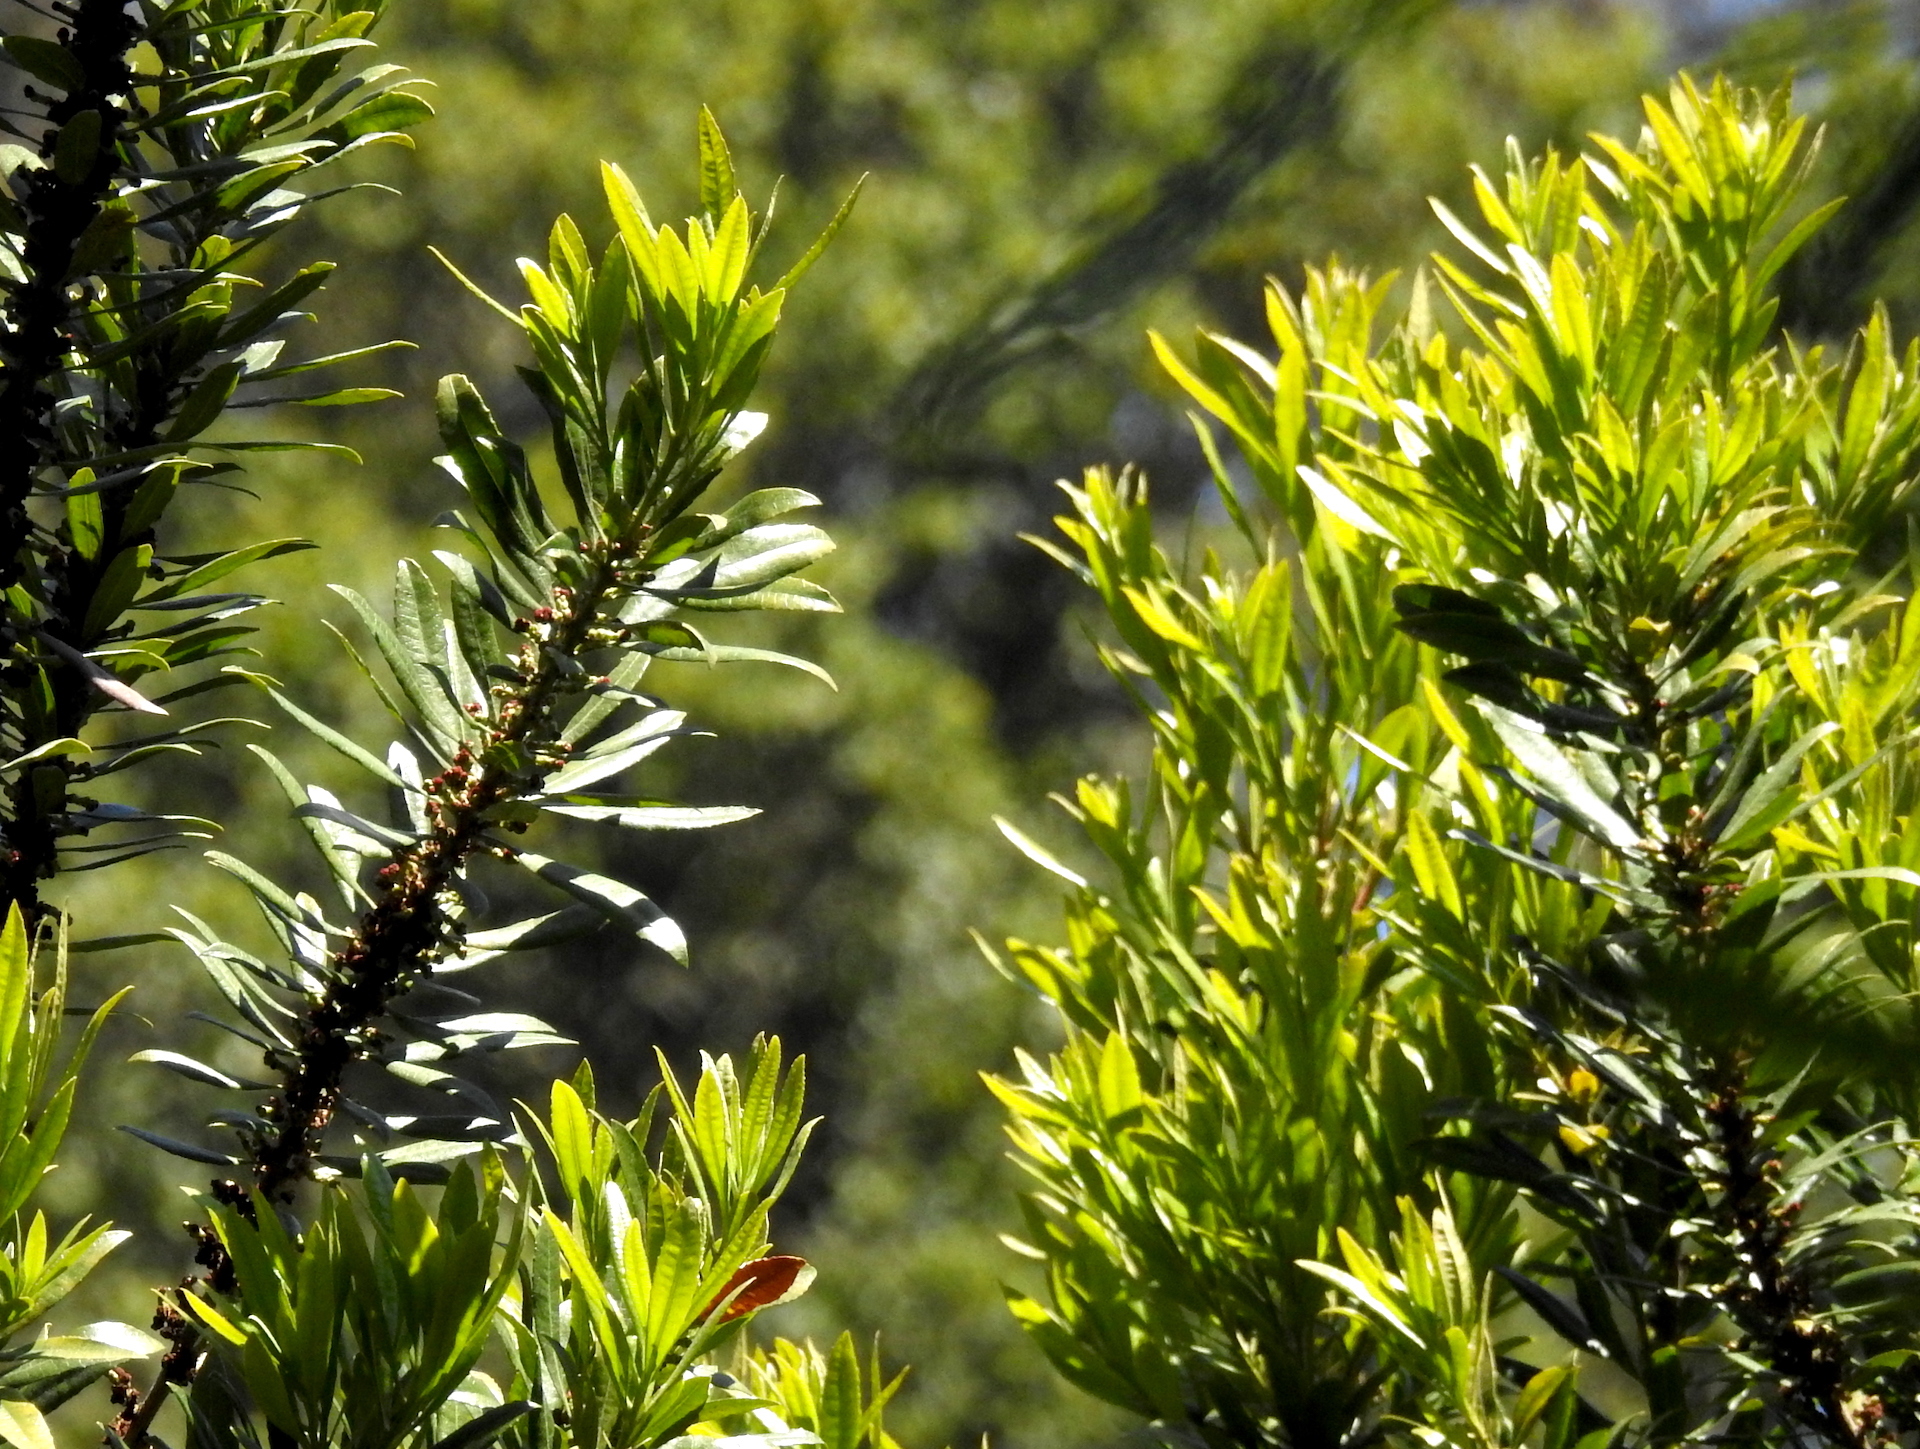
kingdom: Plantae
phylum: Tracheophyta
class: Magnoliopsida
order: Fagales
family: Myricaceae
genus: Morella
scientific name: Morella californica
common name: California wax-myrtle
